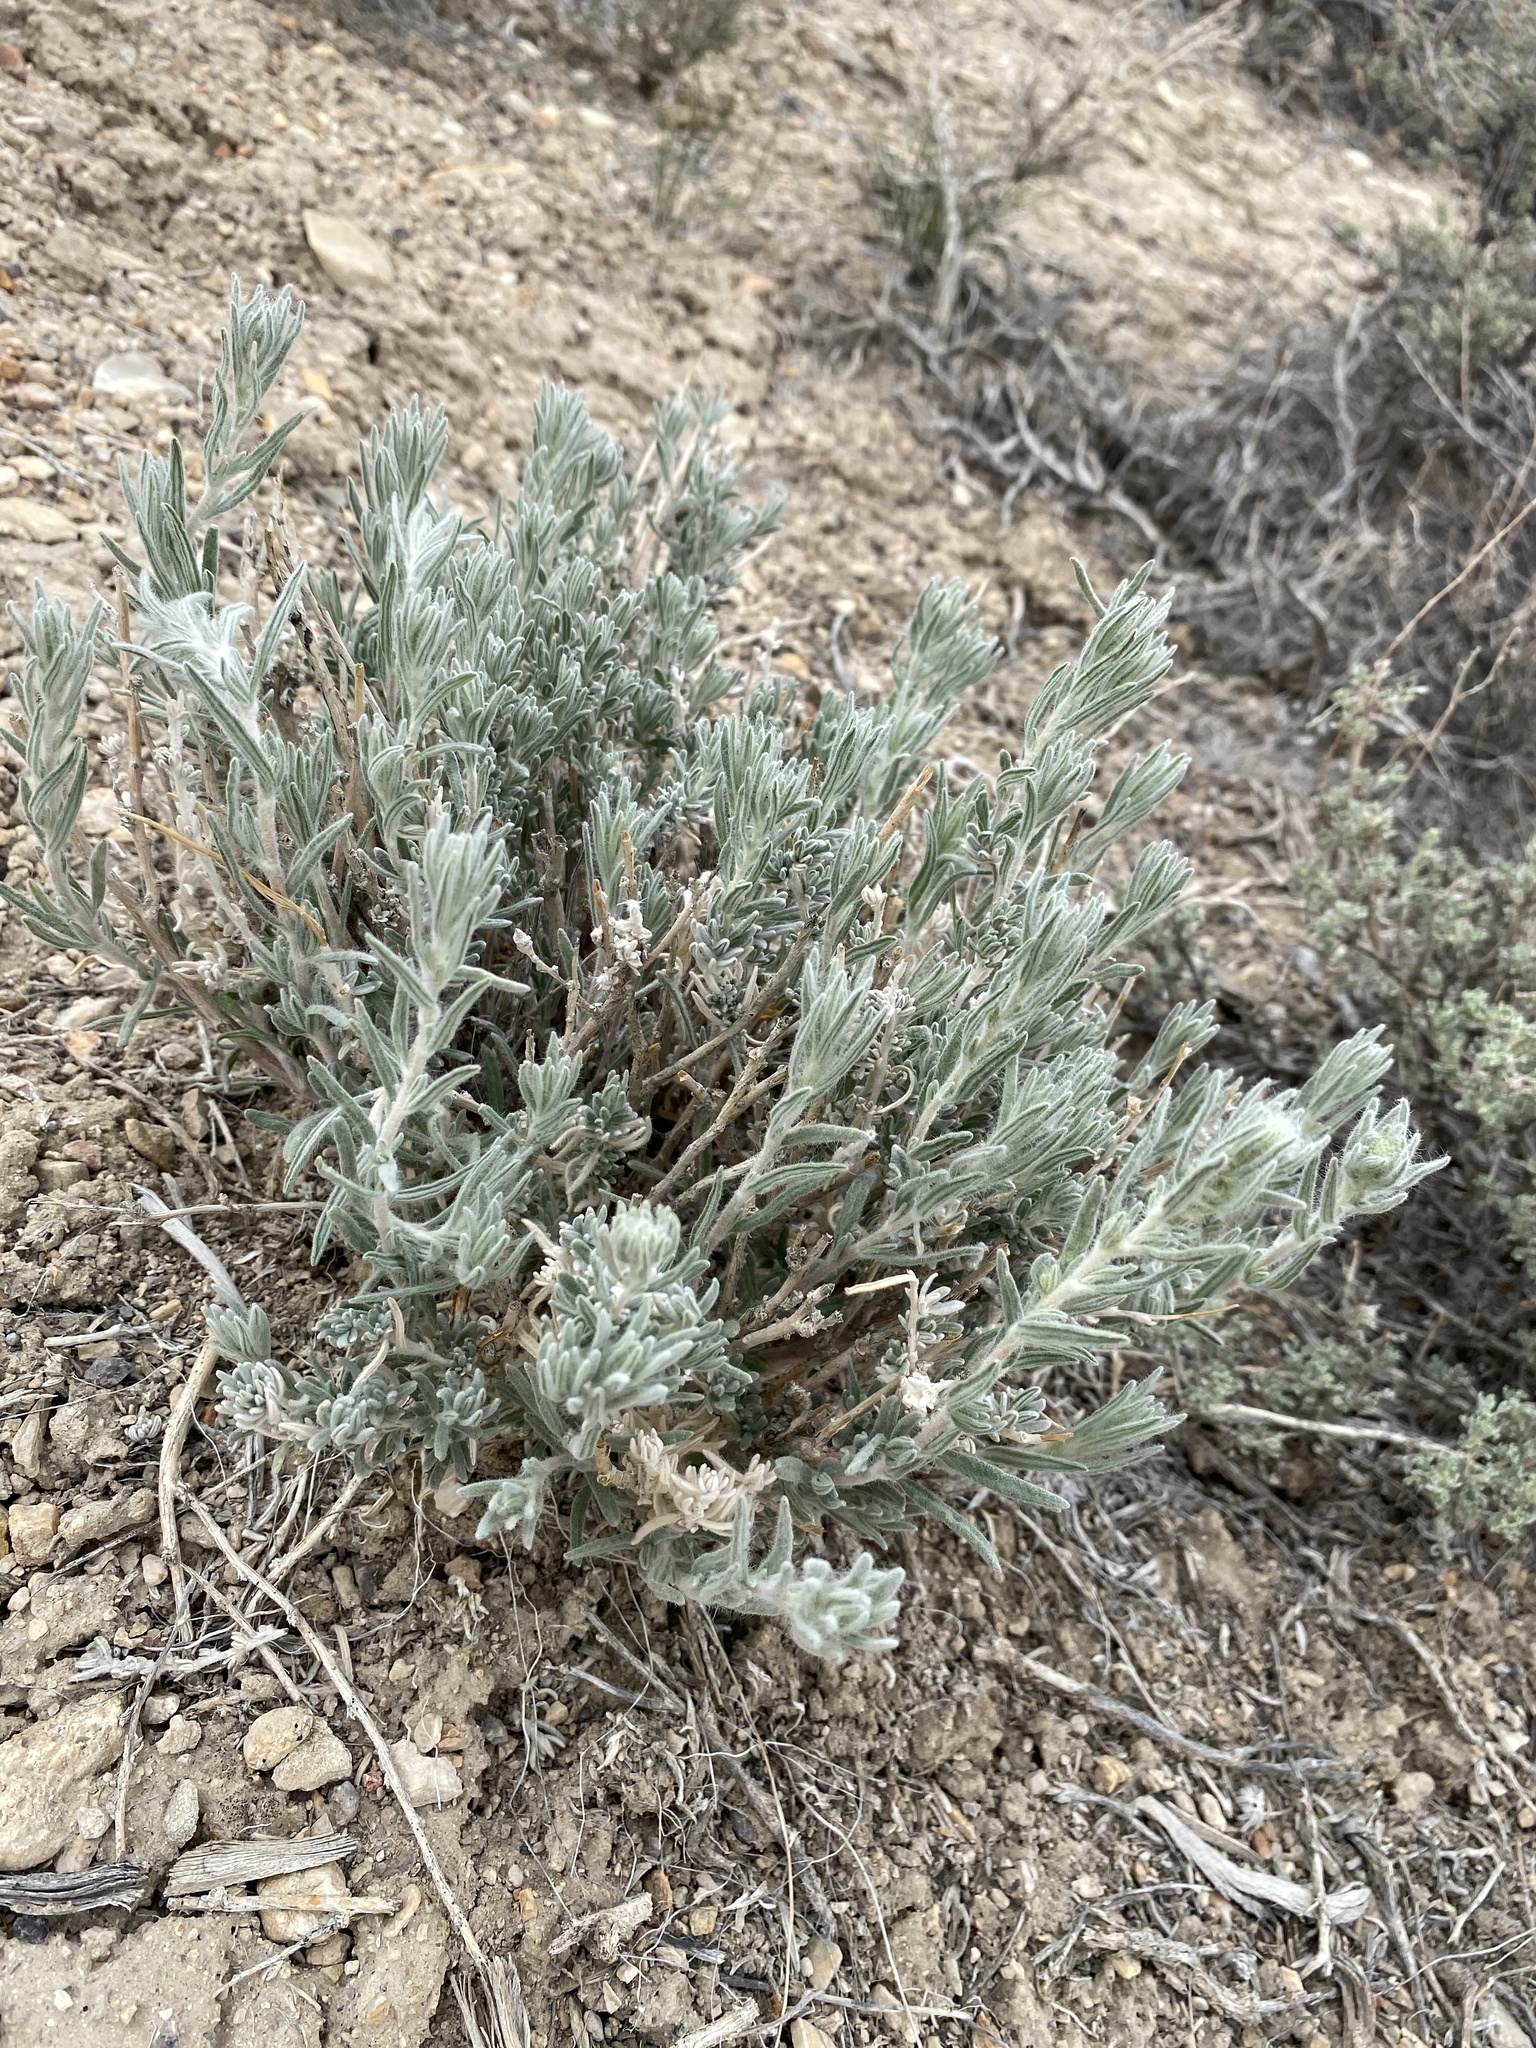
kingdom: Plantae
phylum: Tracheophyta
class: Magnoliopsida
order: Caryophyllales
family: Amaranthaceae
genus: Krascheninnikovia
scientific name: Krascheninnikovia lanata
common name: Winterfat
